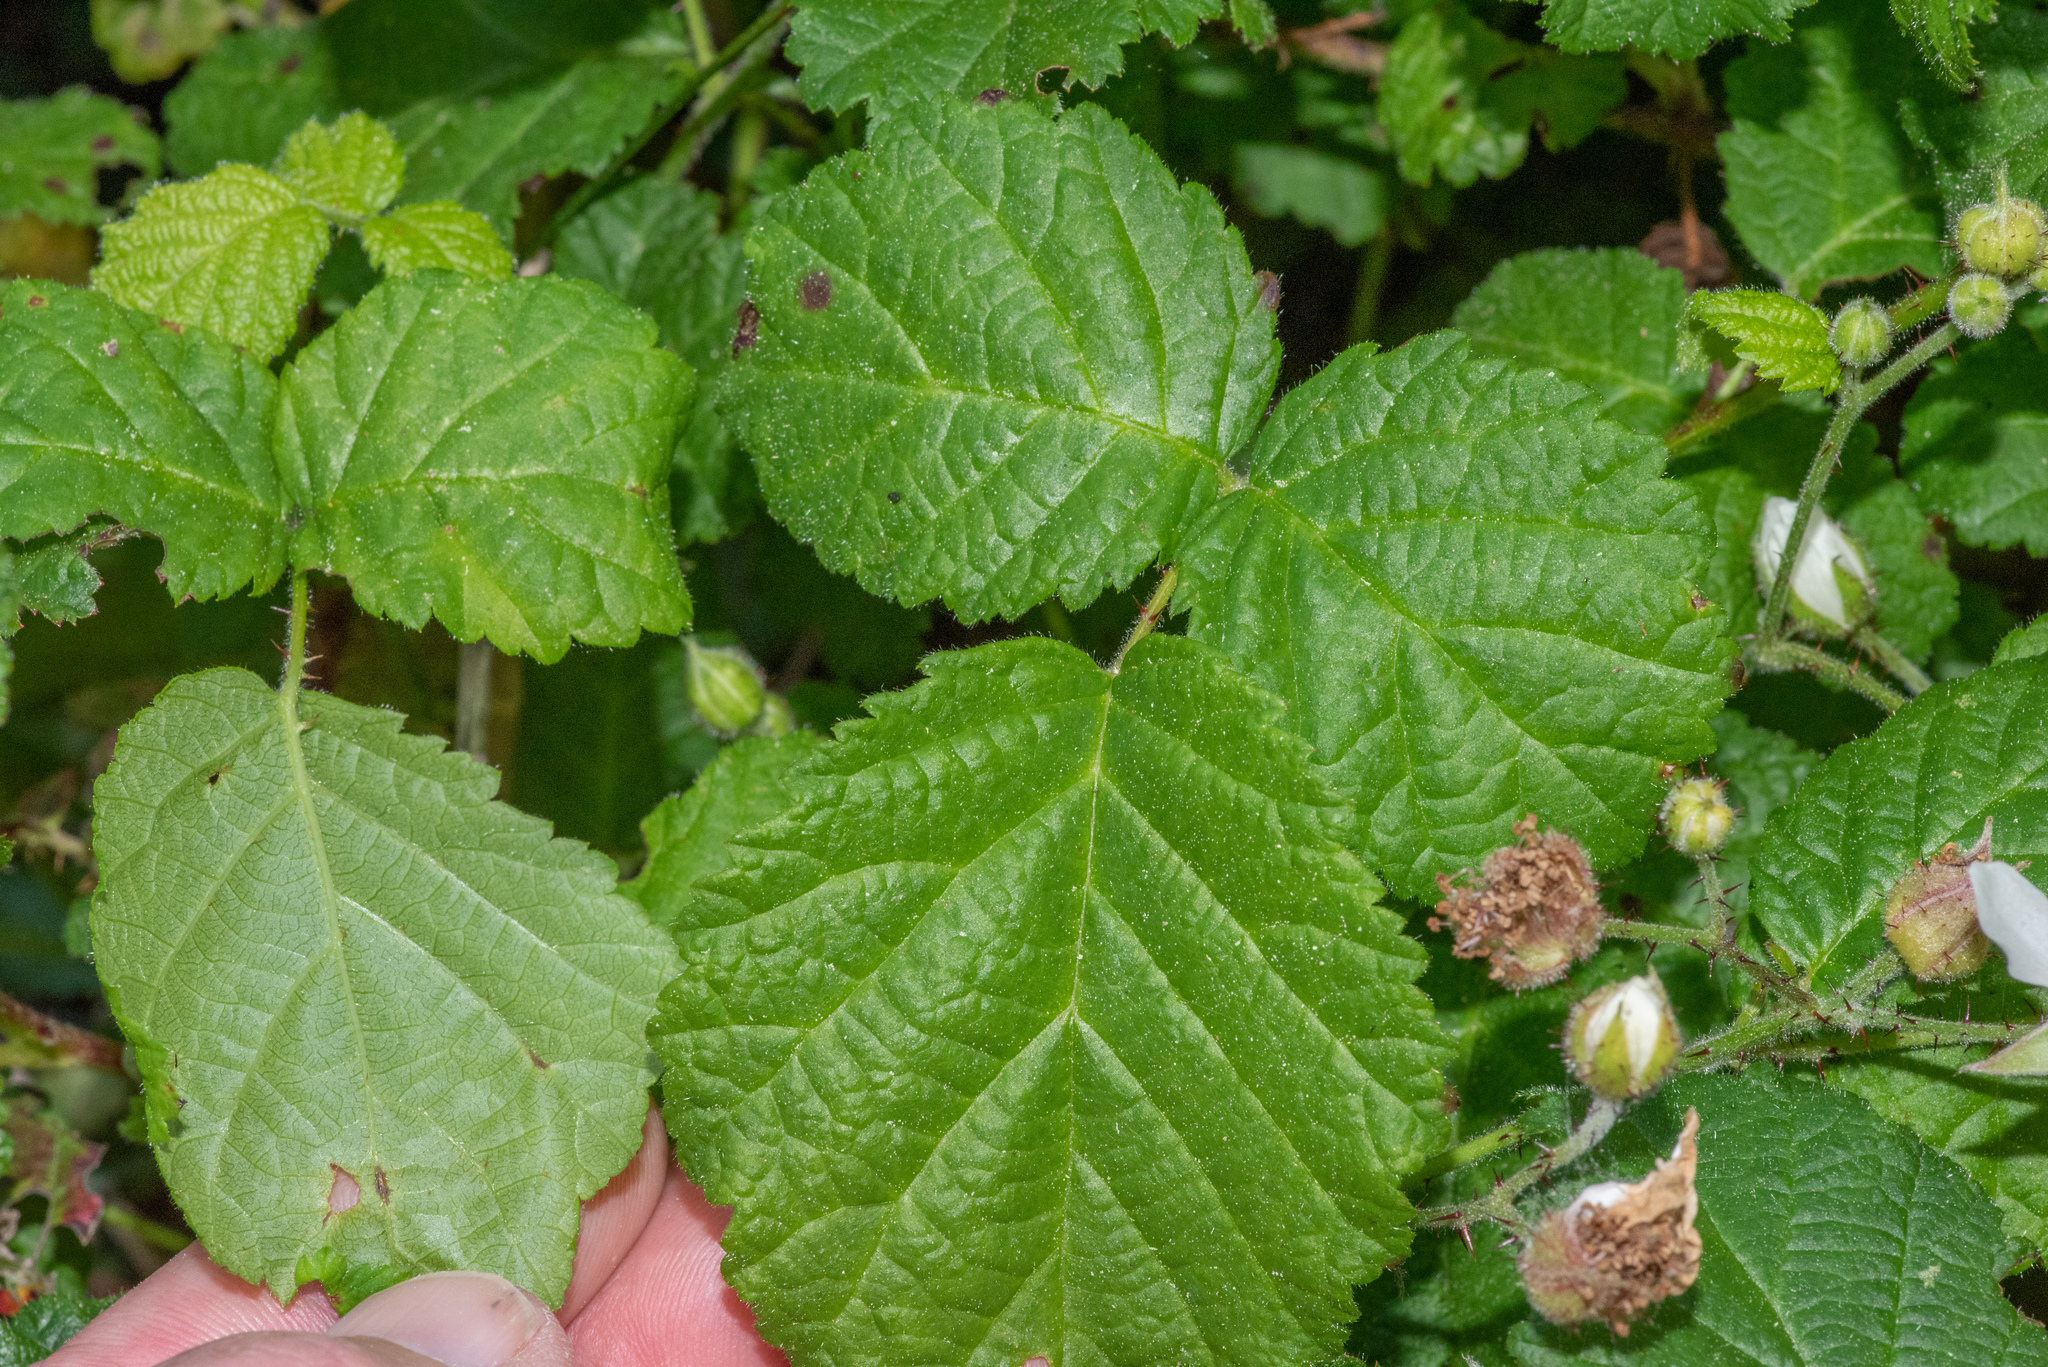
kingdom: Plantae
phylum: Tracheophyta
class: Magnoliopsida
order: Rosales
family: Rosaceae
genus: Rubus
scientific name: Rubus ursinus
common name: Pacific blackberry
